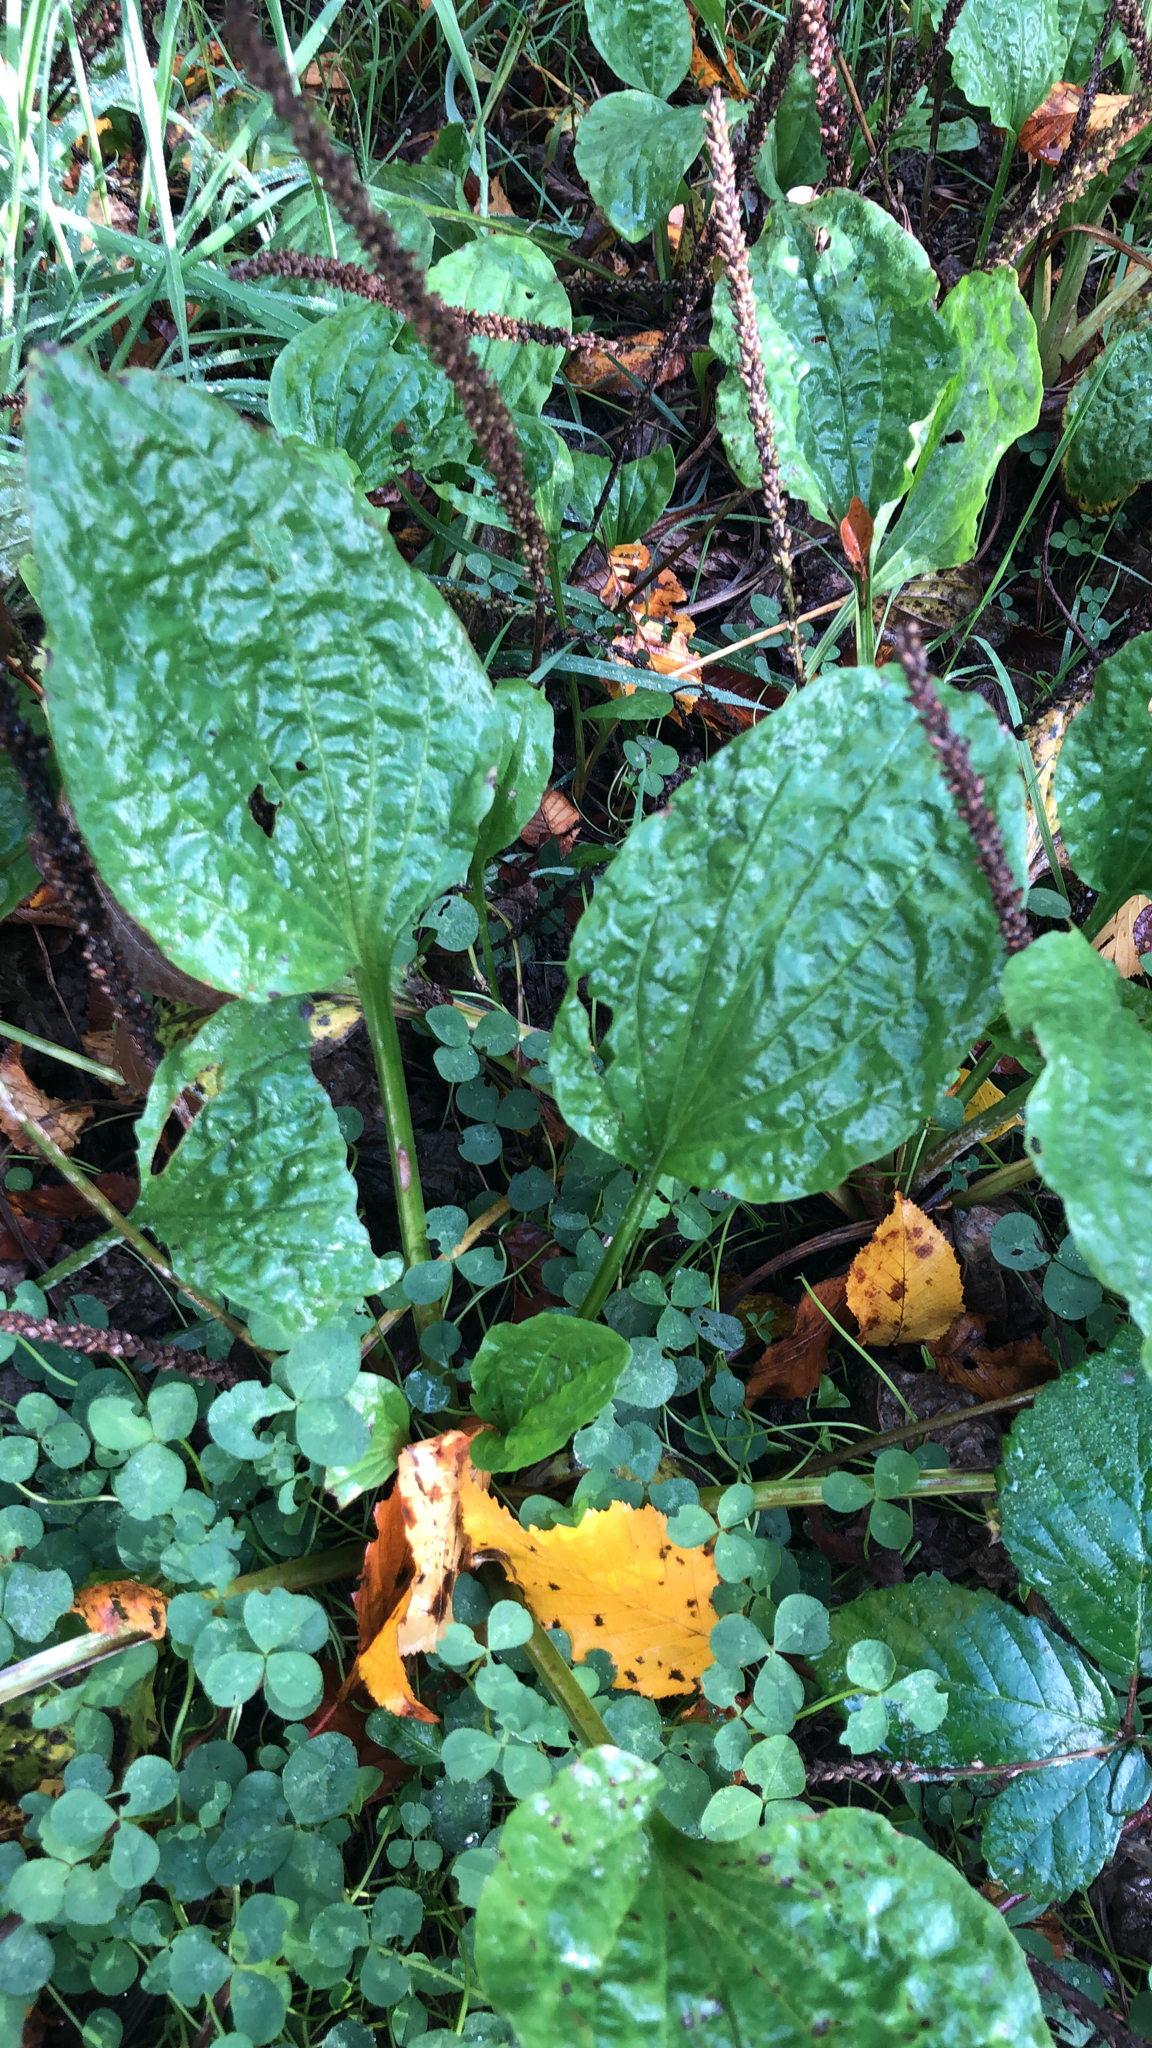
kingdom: Plantae
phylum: Tracheophyta
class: Magnoliopsida
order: Lamiales
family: Plantaginaceae
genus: Plantago
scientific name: Plantago major
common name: Common plantain
